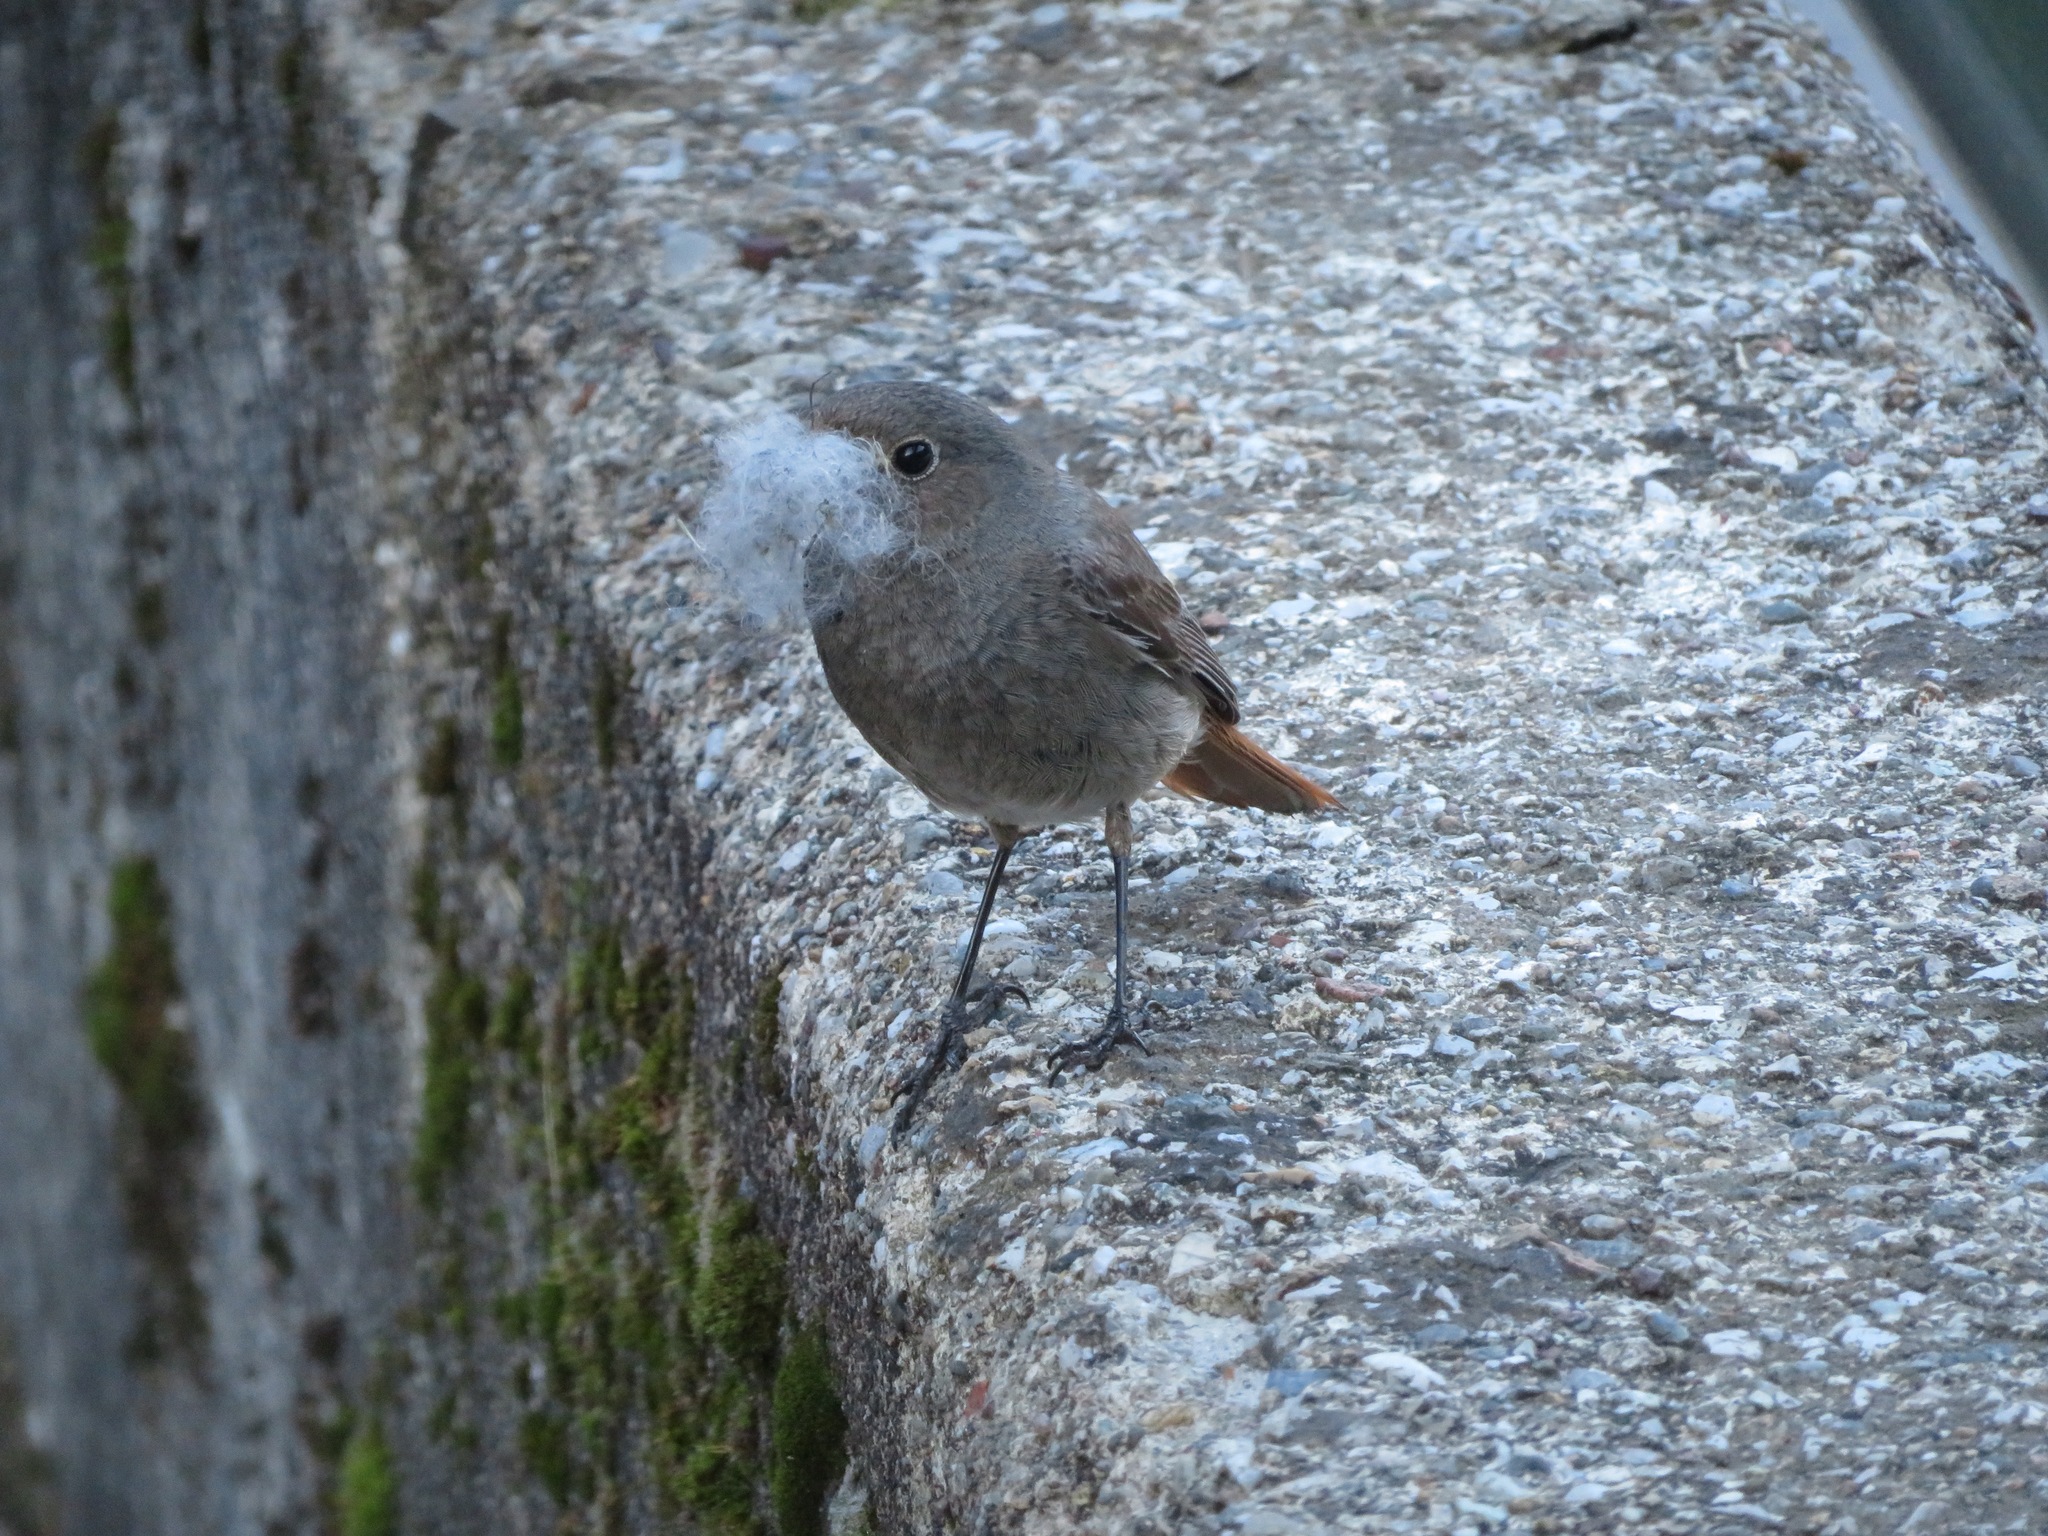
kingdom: Animalia
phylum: Chordata
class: Aves
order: Passeriformes
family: Muscicapidae
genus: Phoenicurus
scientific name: Phoenicurus ochruros
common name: Black redstart
